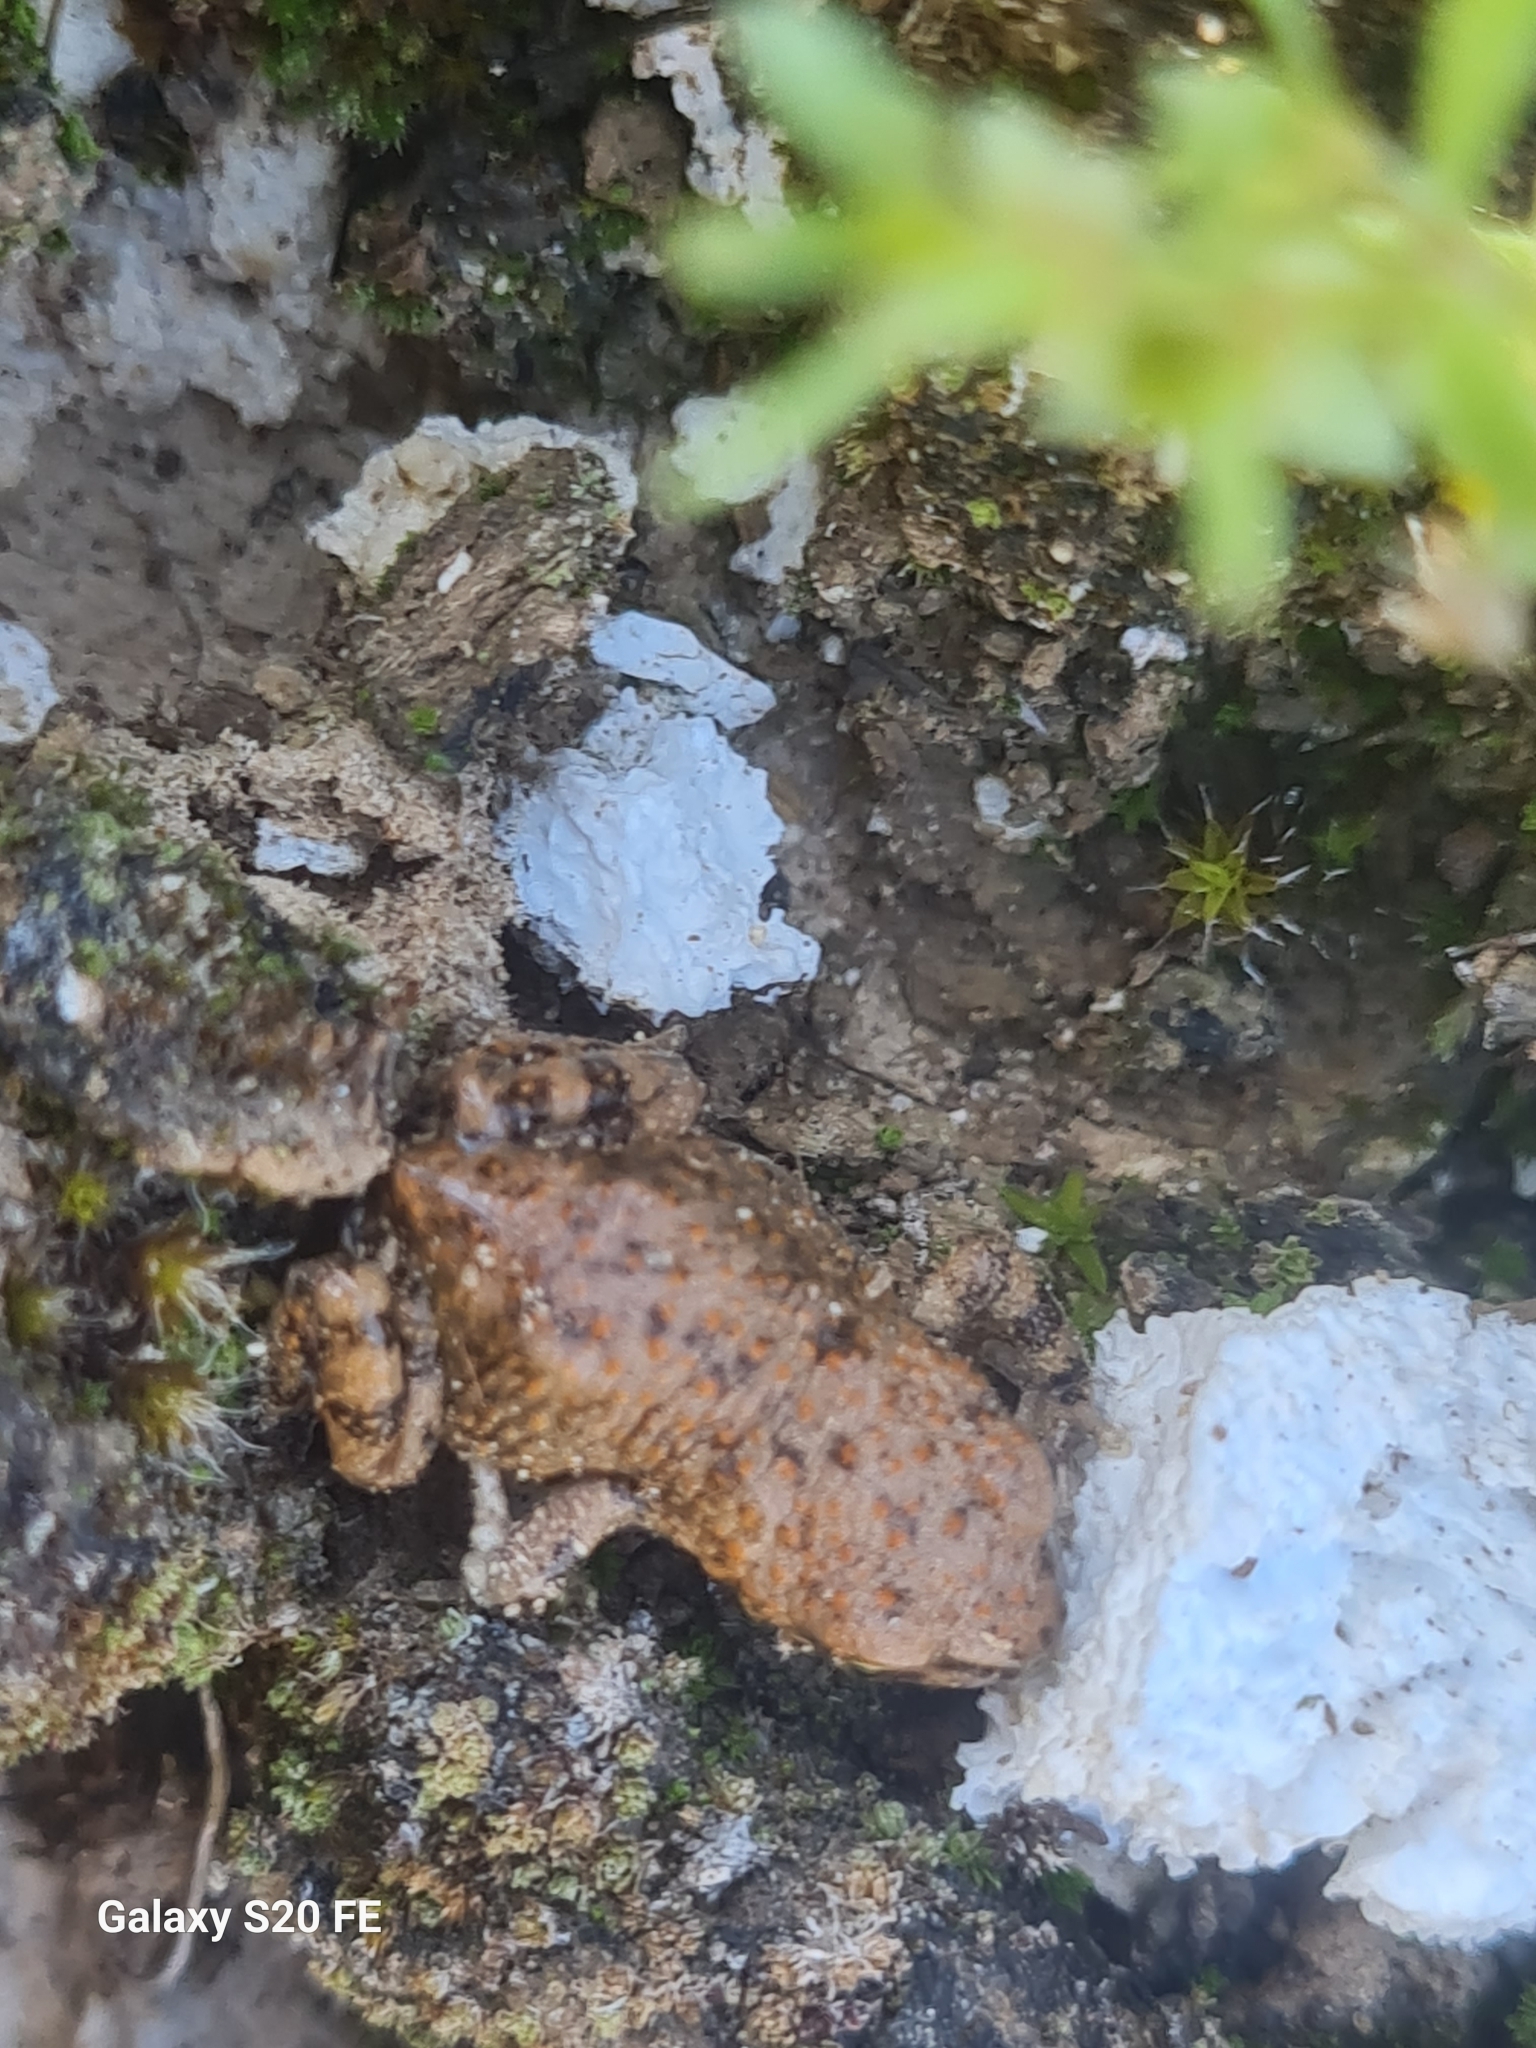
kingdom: Animalia
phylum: Chordata
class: Amphibia
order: Anura
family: Bufonidae
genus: Bufotes
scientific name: Bufotes luristanicus
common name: Lorestan earless toad
